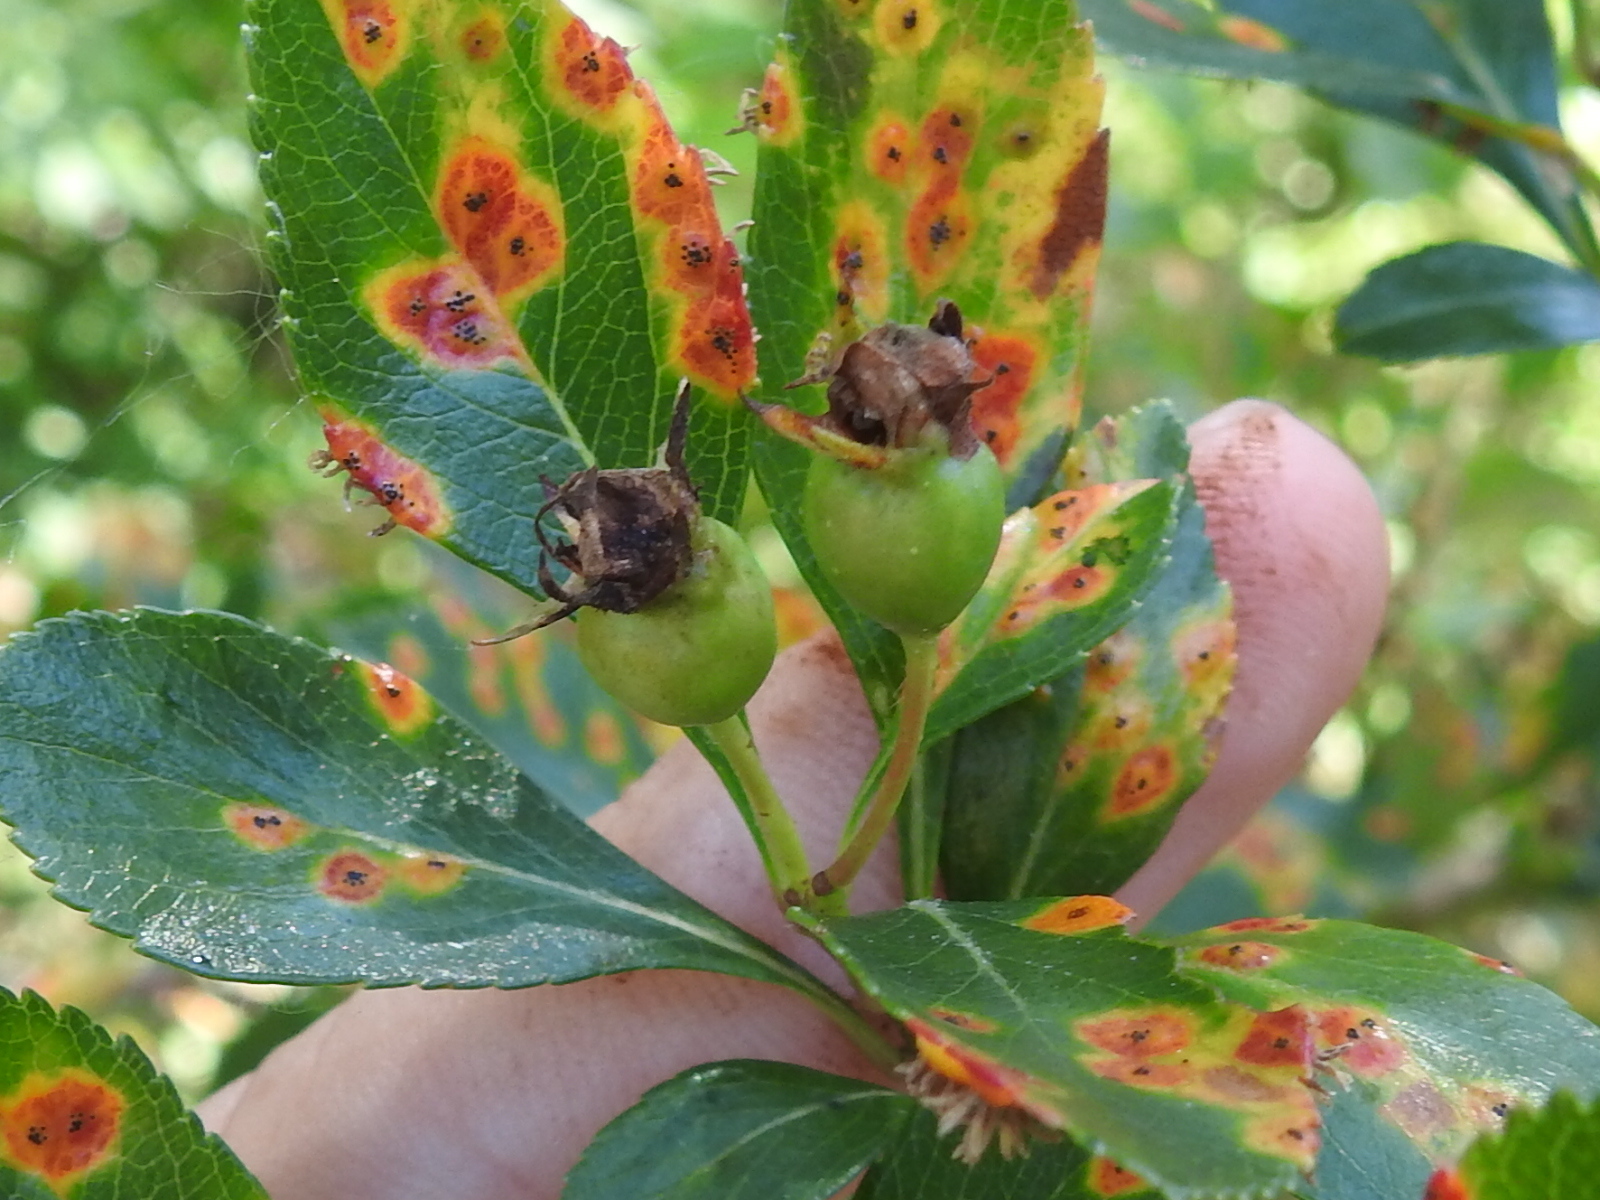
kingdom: Plantae
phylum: Tracheophyta
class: Magnoliopsida
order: Rosales
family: Rosaceae
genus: Crataegus
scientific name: Crataegus crus-galli
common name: Cockspurthorn
